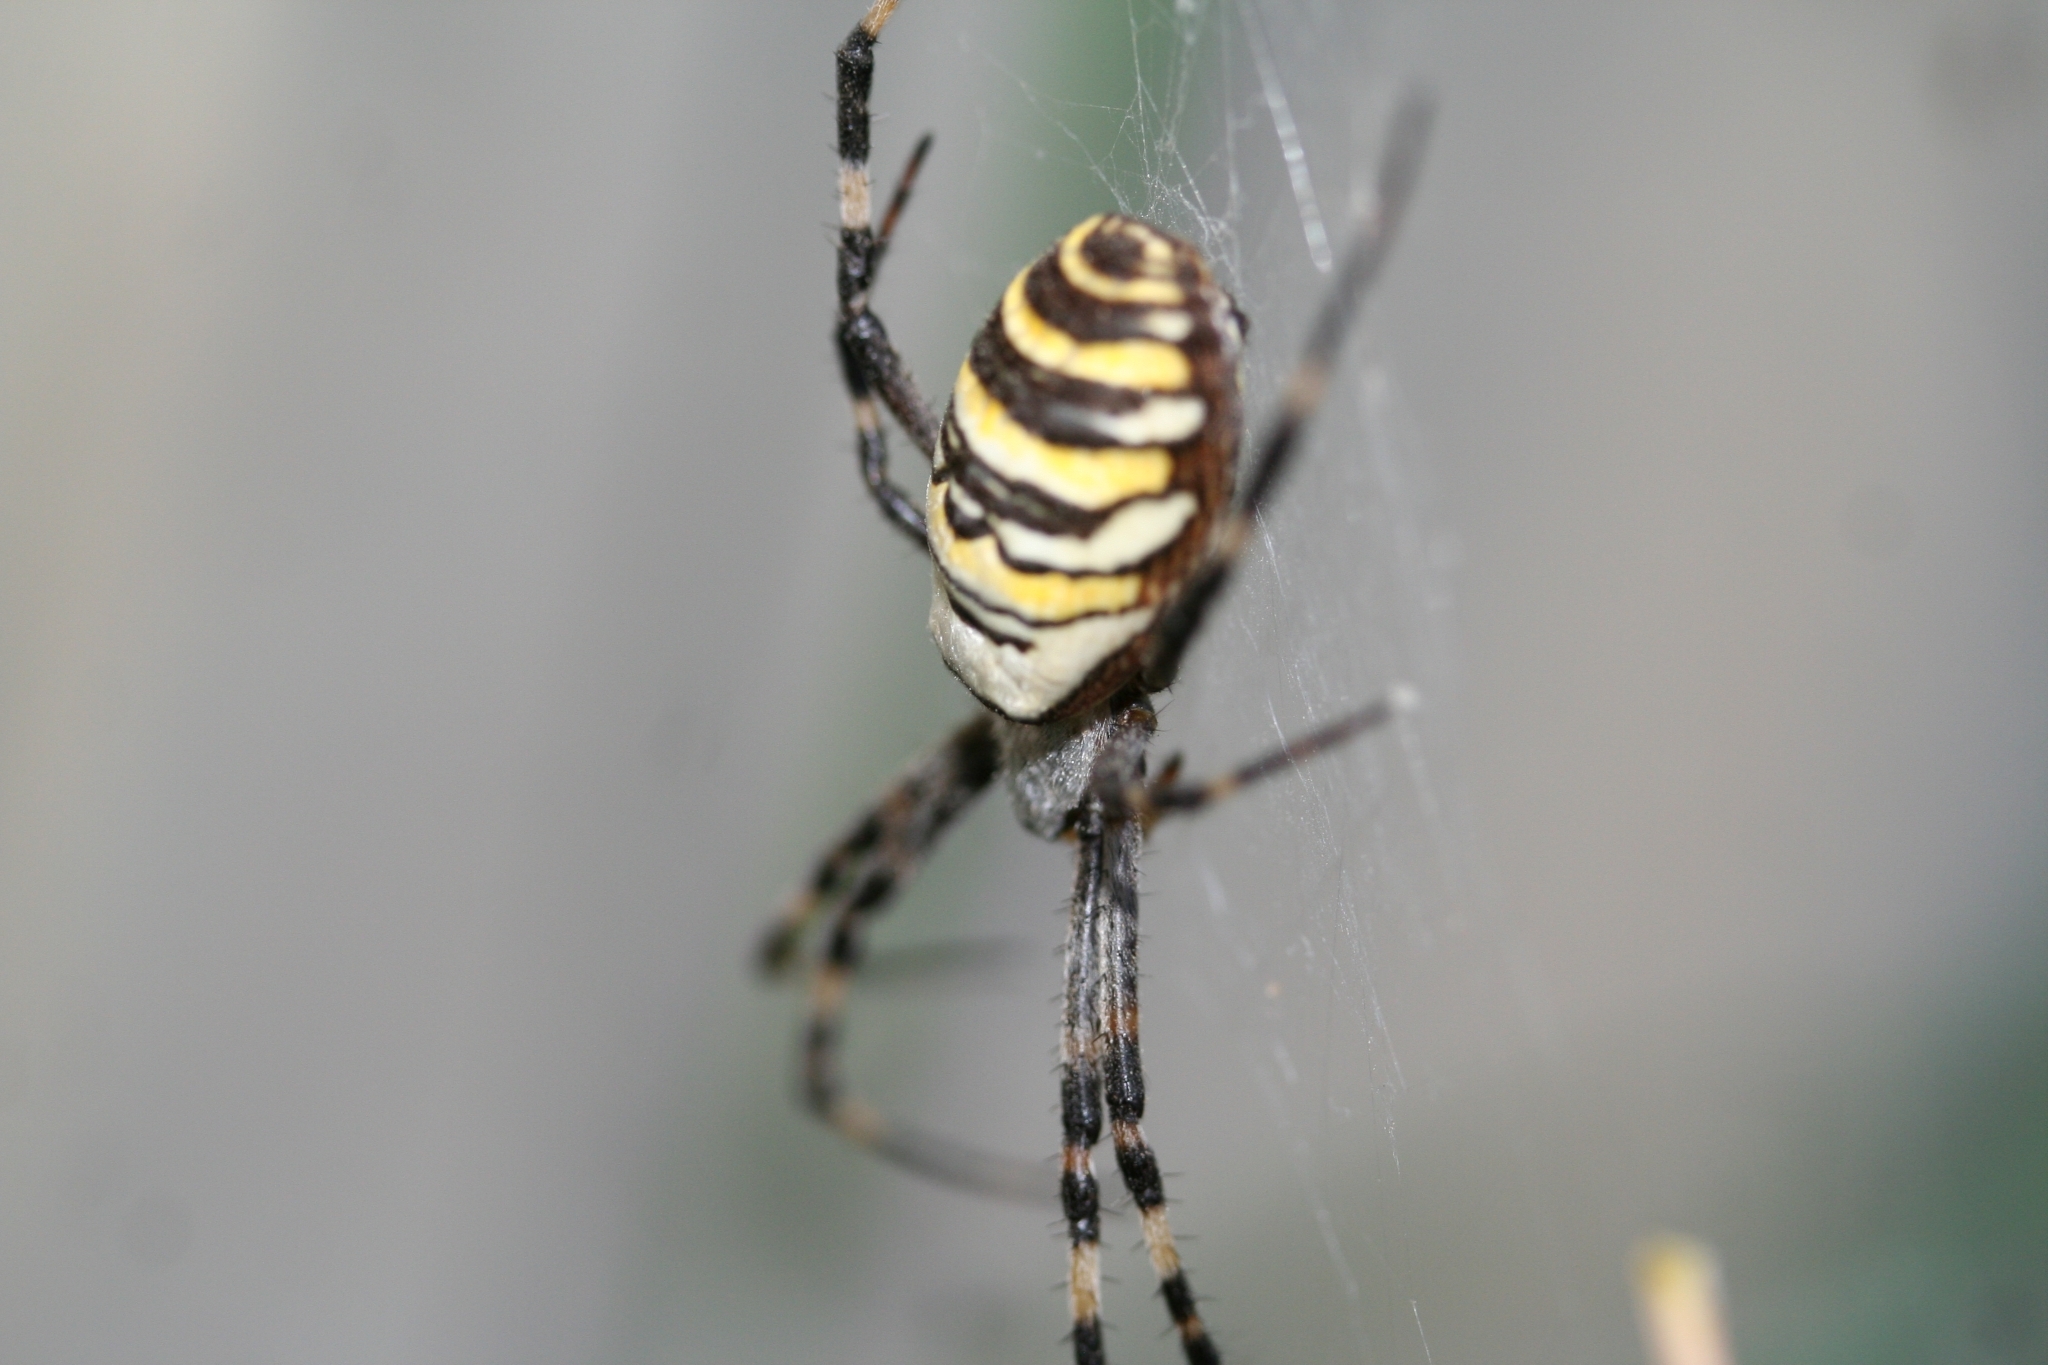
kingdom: Animalia
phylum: Arthropoda
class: Arachnida
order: Araneae
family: Araneidae
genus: Argiope
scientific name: Argiope bruennichi
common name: Wasp spider
